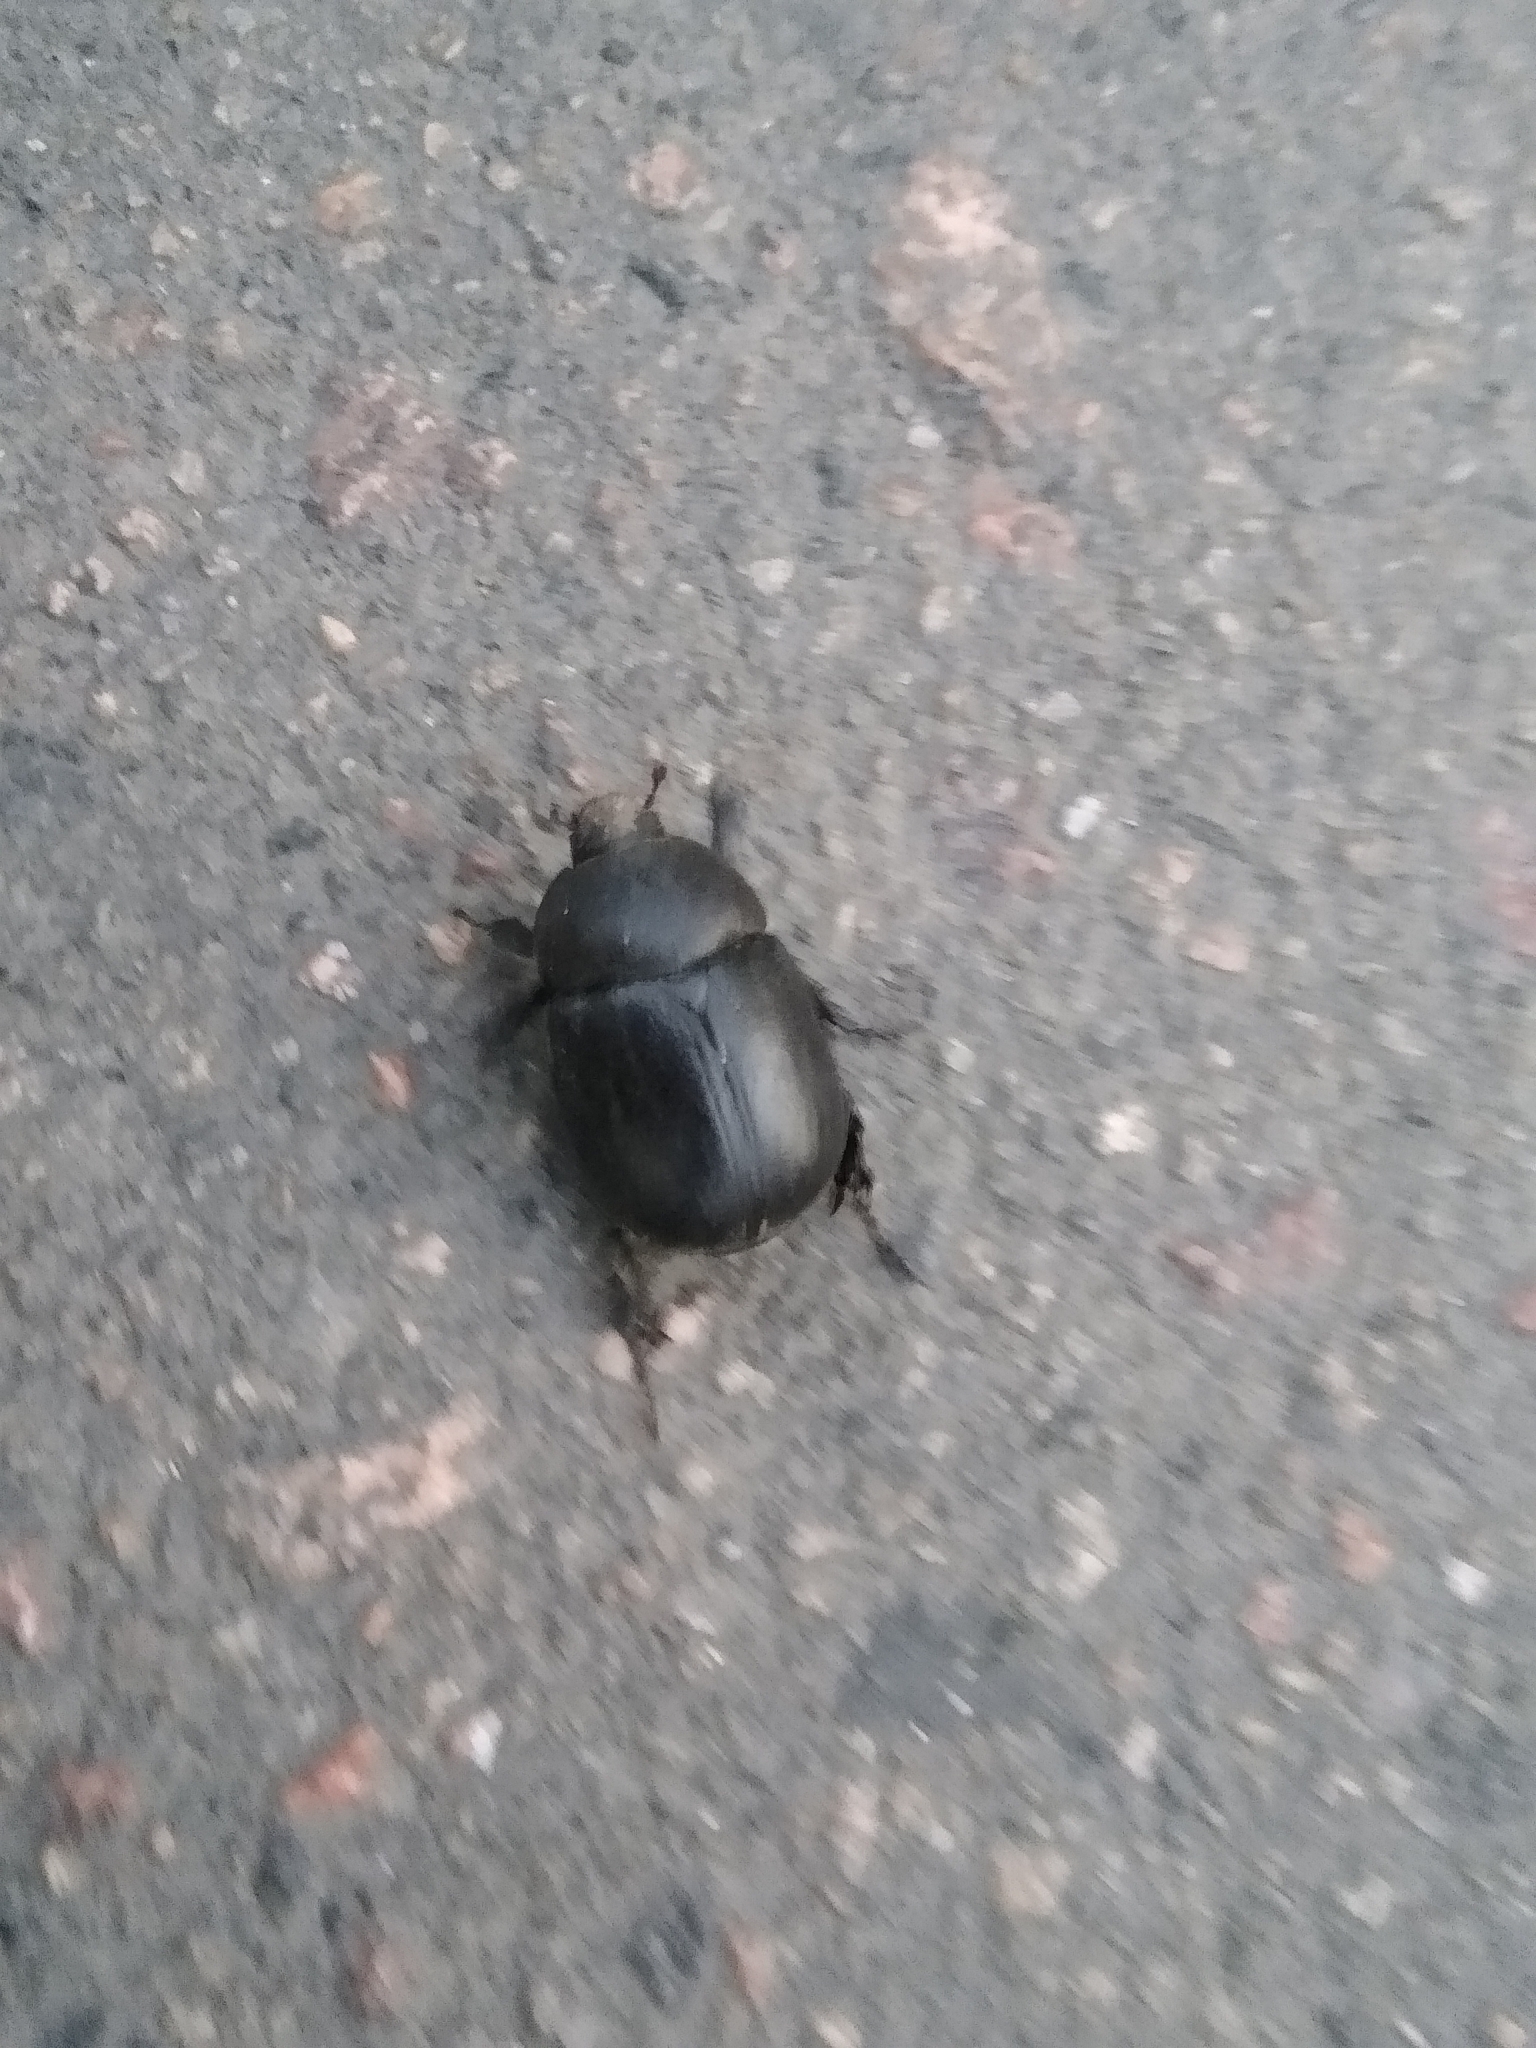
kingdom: Animalia
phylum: Arthropoda
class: Insecta
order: Coleoptera
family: Scarabaeidae
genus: Pentodon
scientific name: Pentodon idiota
